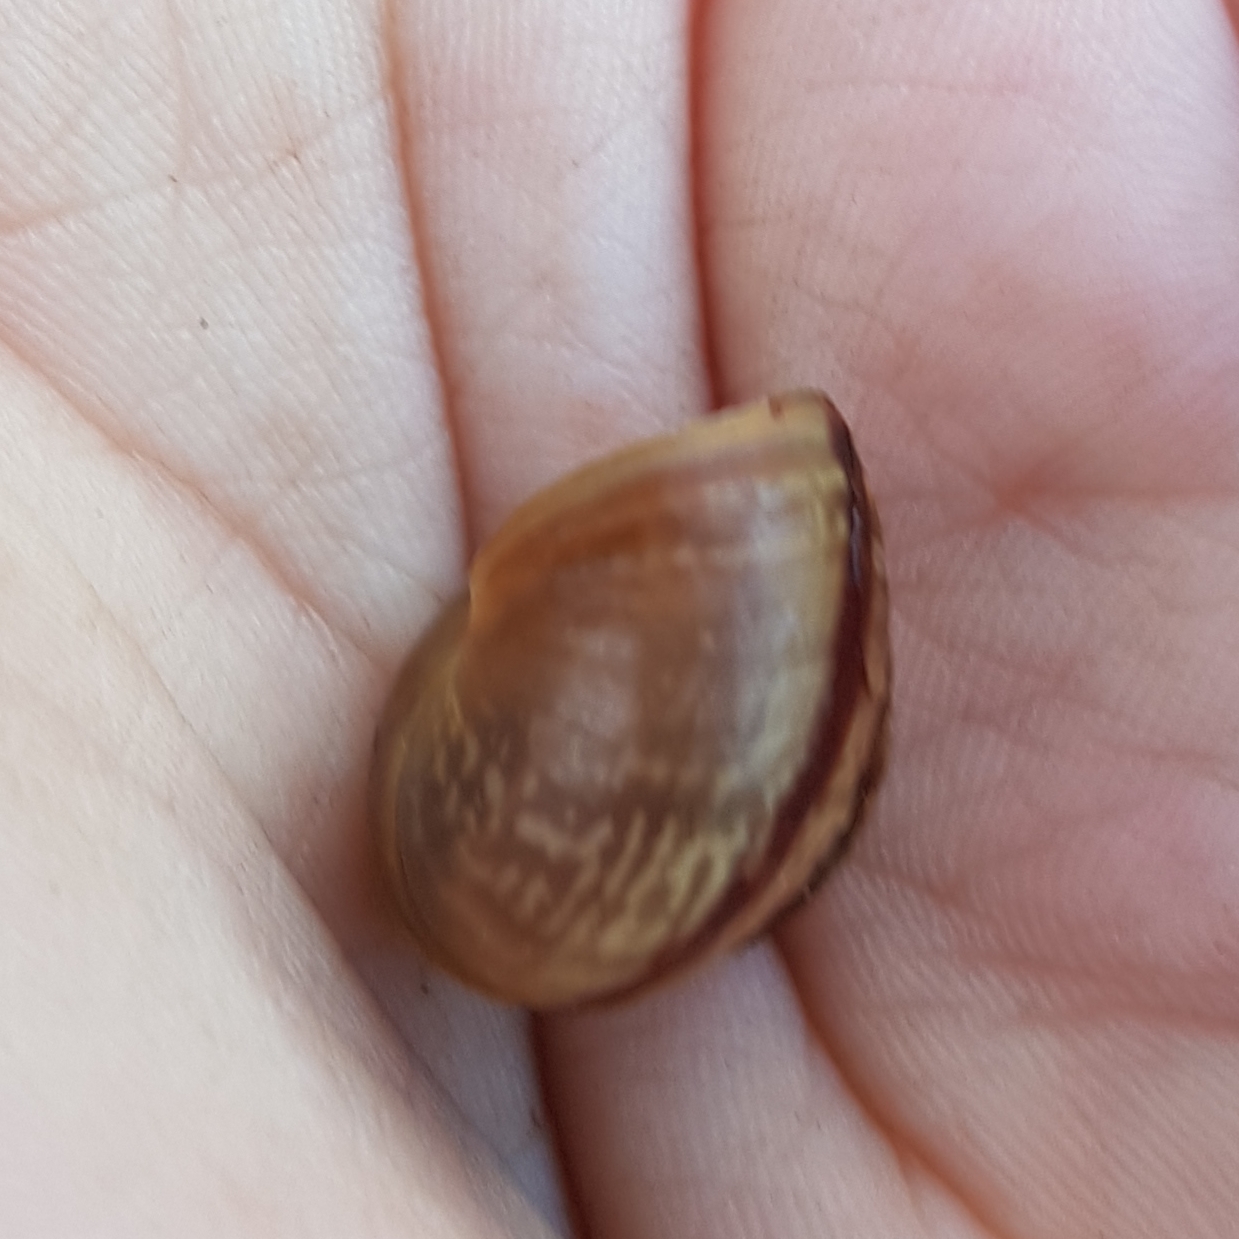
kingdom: Animalia
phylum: Mollusca
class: Gastropoda
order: Stylommatophora
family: Helicidae
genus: Arianta
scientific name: Arianta arbustorum
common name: Copse snail
